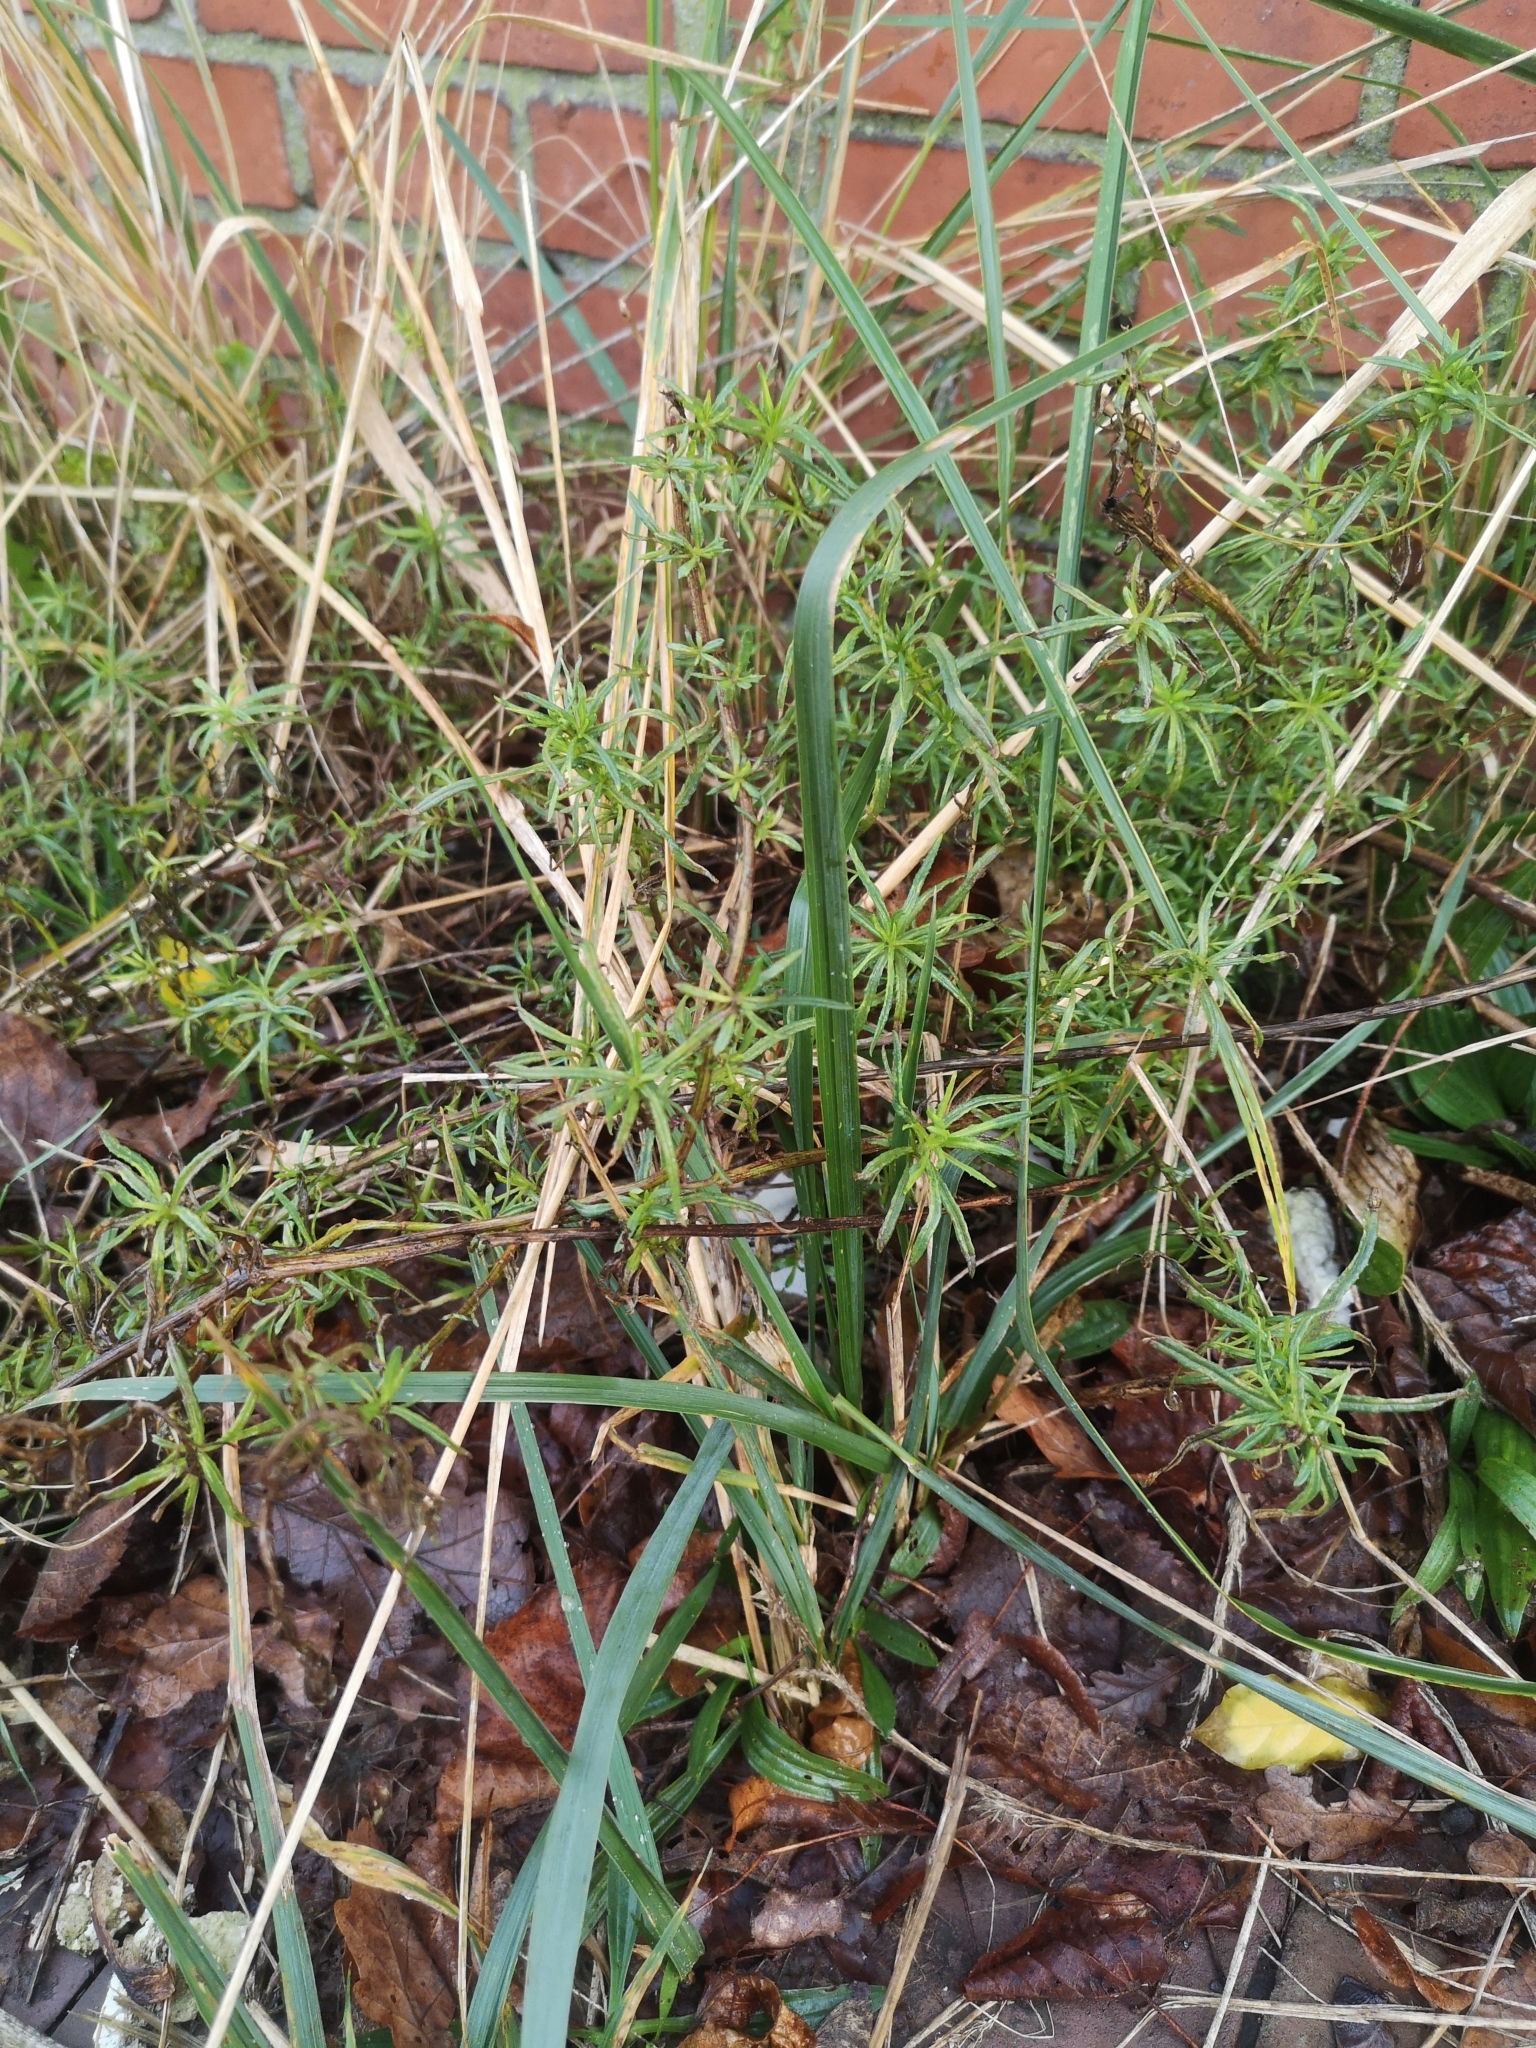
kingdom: Plantae
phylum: Tracheophyta
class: Magnoliopsida
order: Asterales
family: Asteraceae
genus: Senecio
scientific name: Senecio inaequidens
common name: Narrow-leaved ragwort
